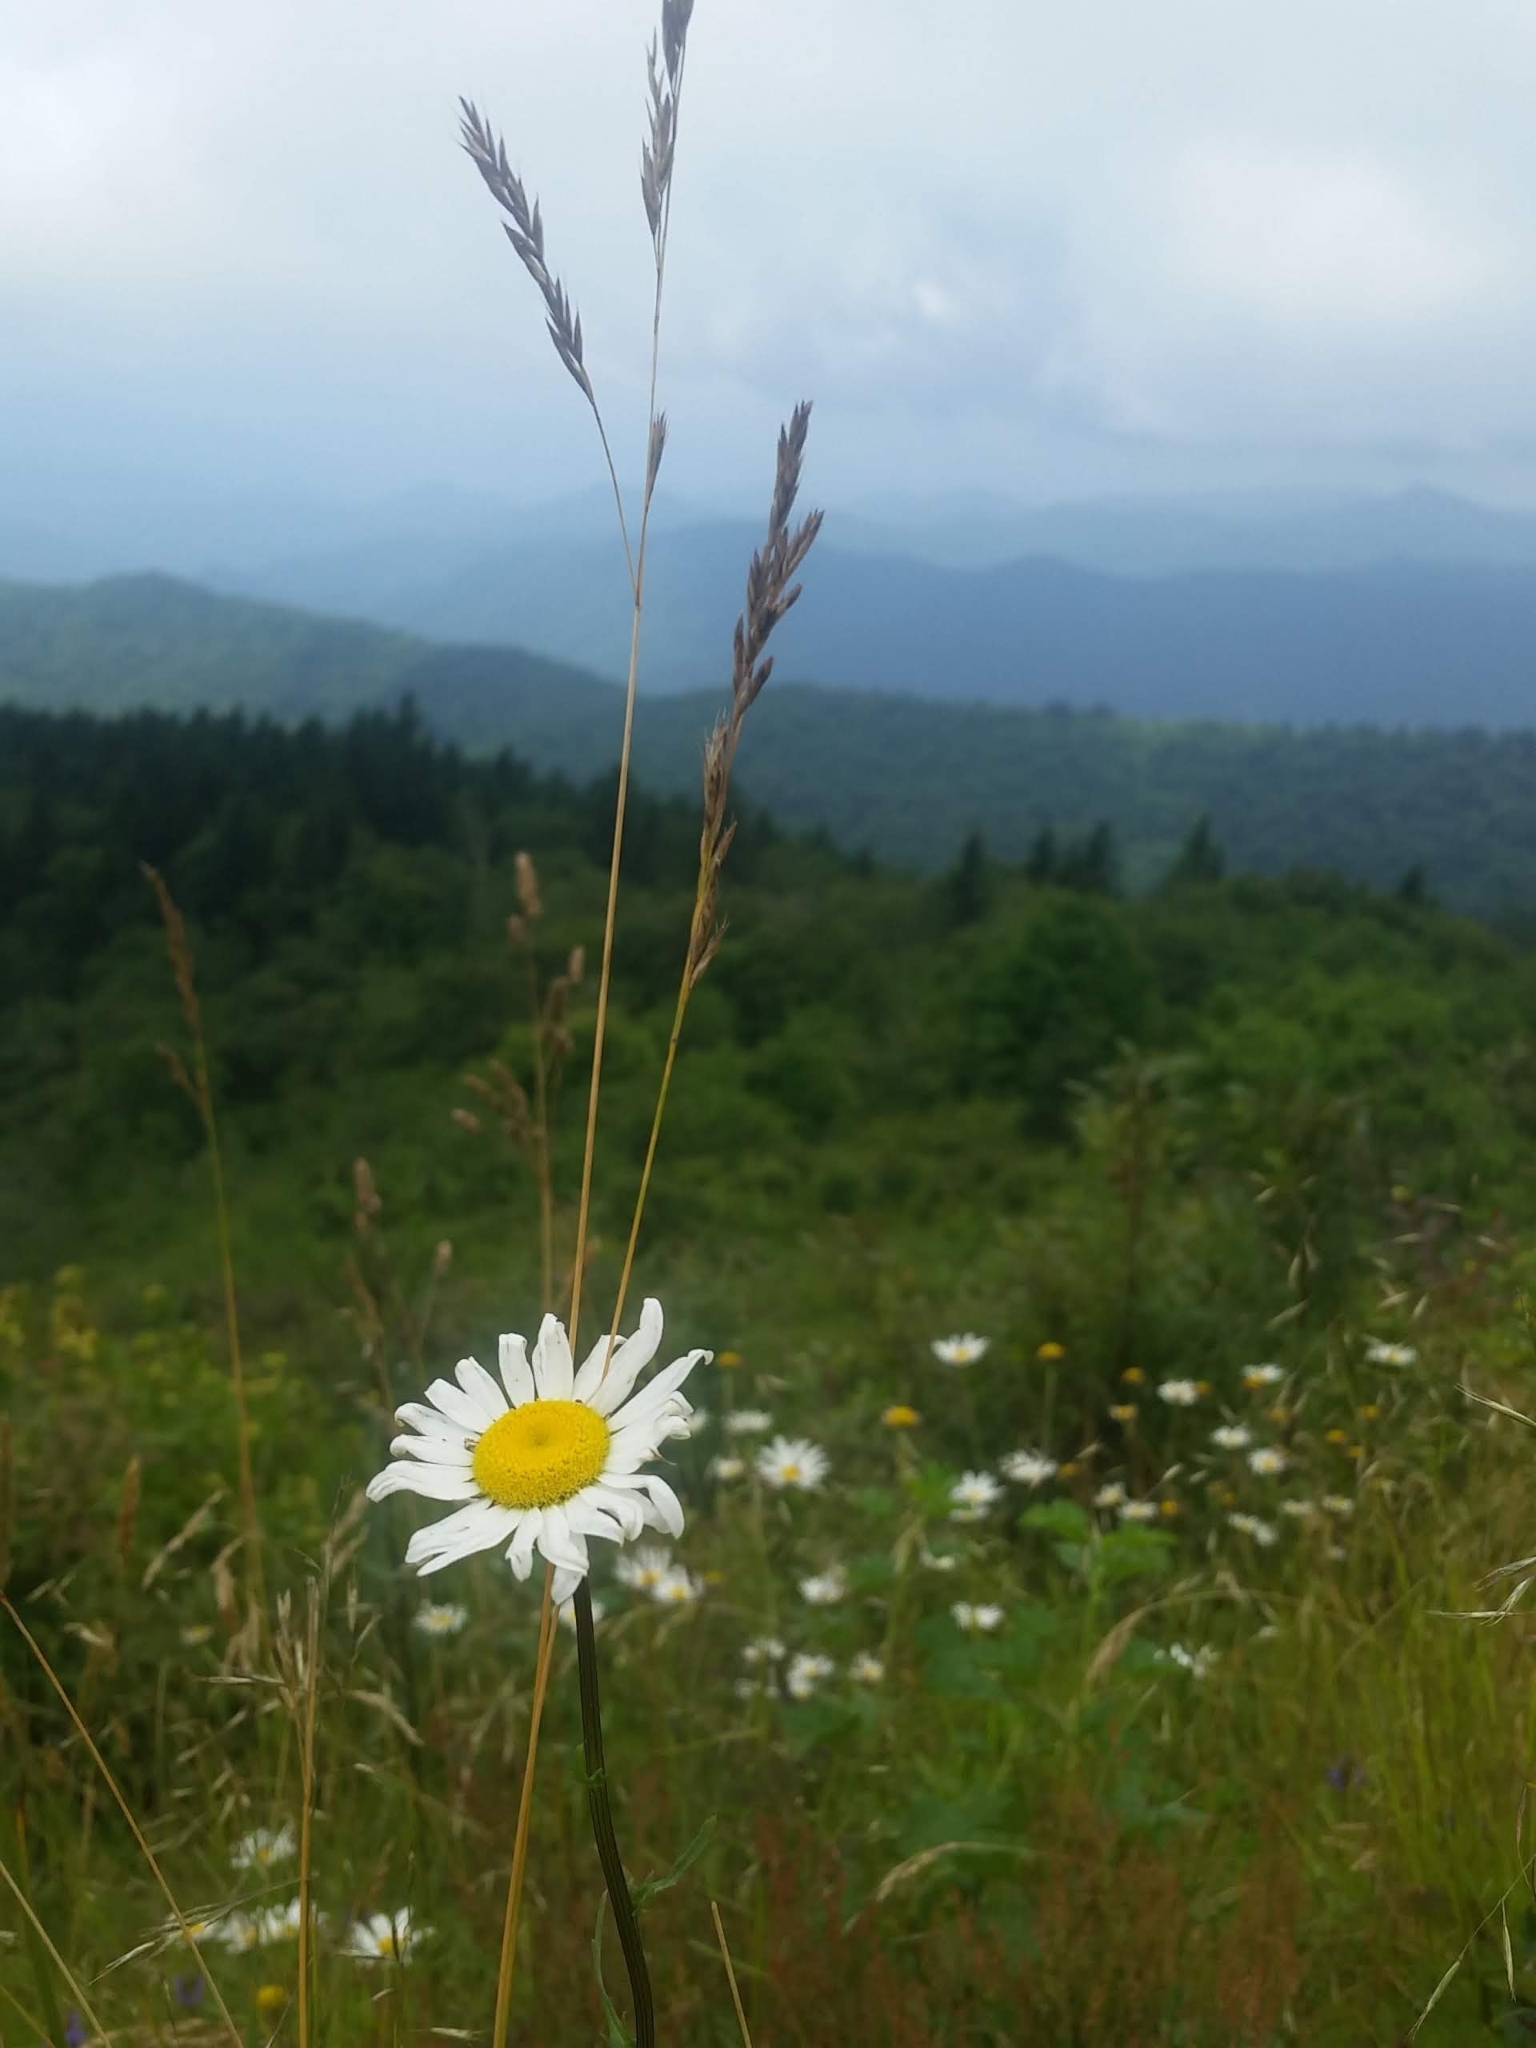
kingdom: Plantae
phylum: Tracheophyta
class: Magnoliopsida
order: Asterales
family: Asteraceae
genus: Leucanthemum
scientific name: Leucanthemum vulgare
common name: Oxeye daisy
